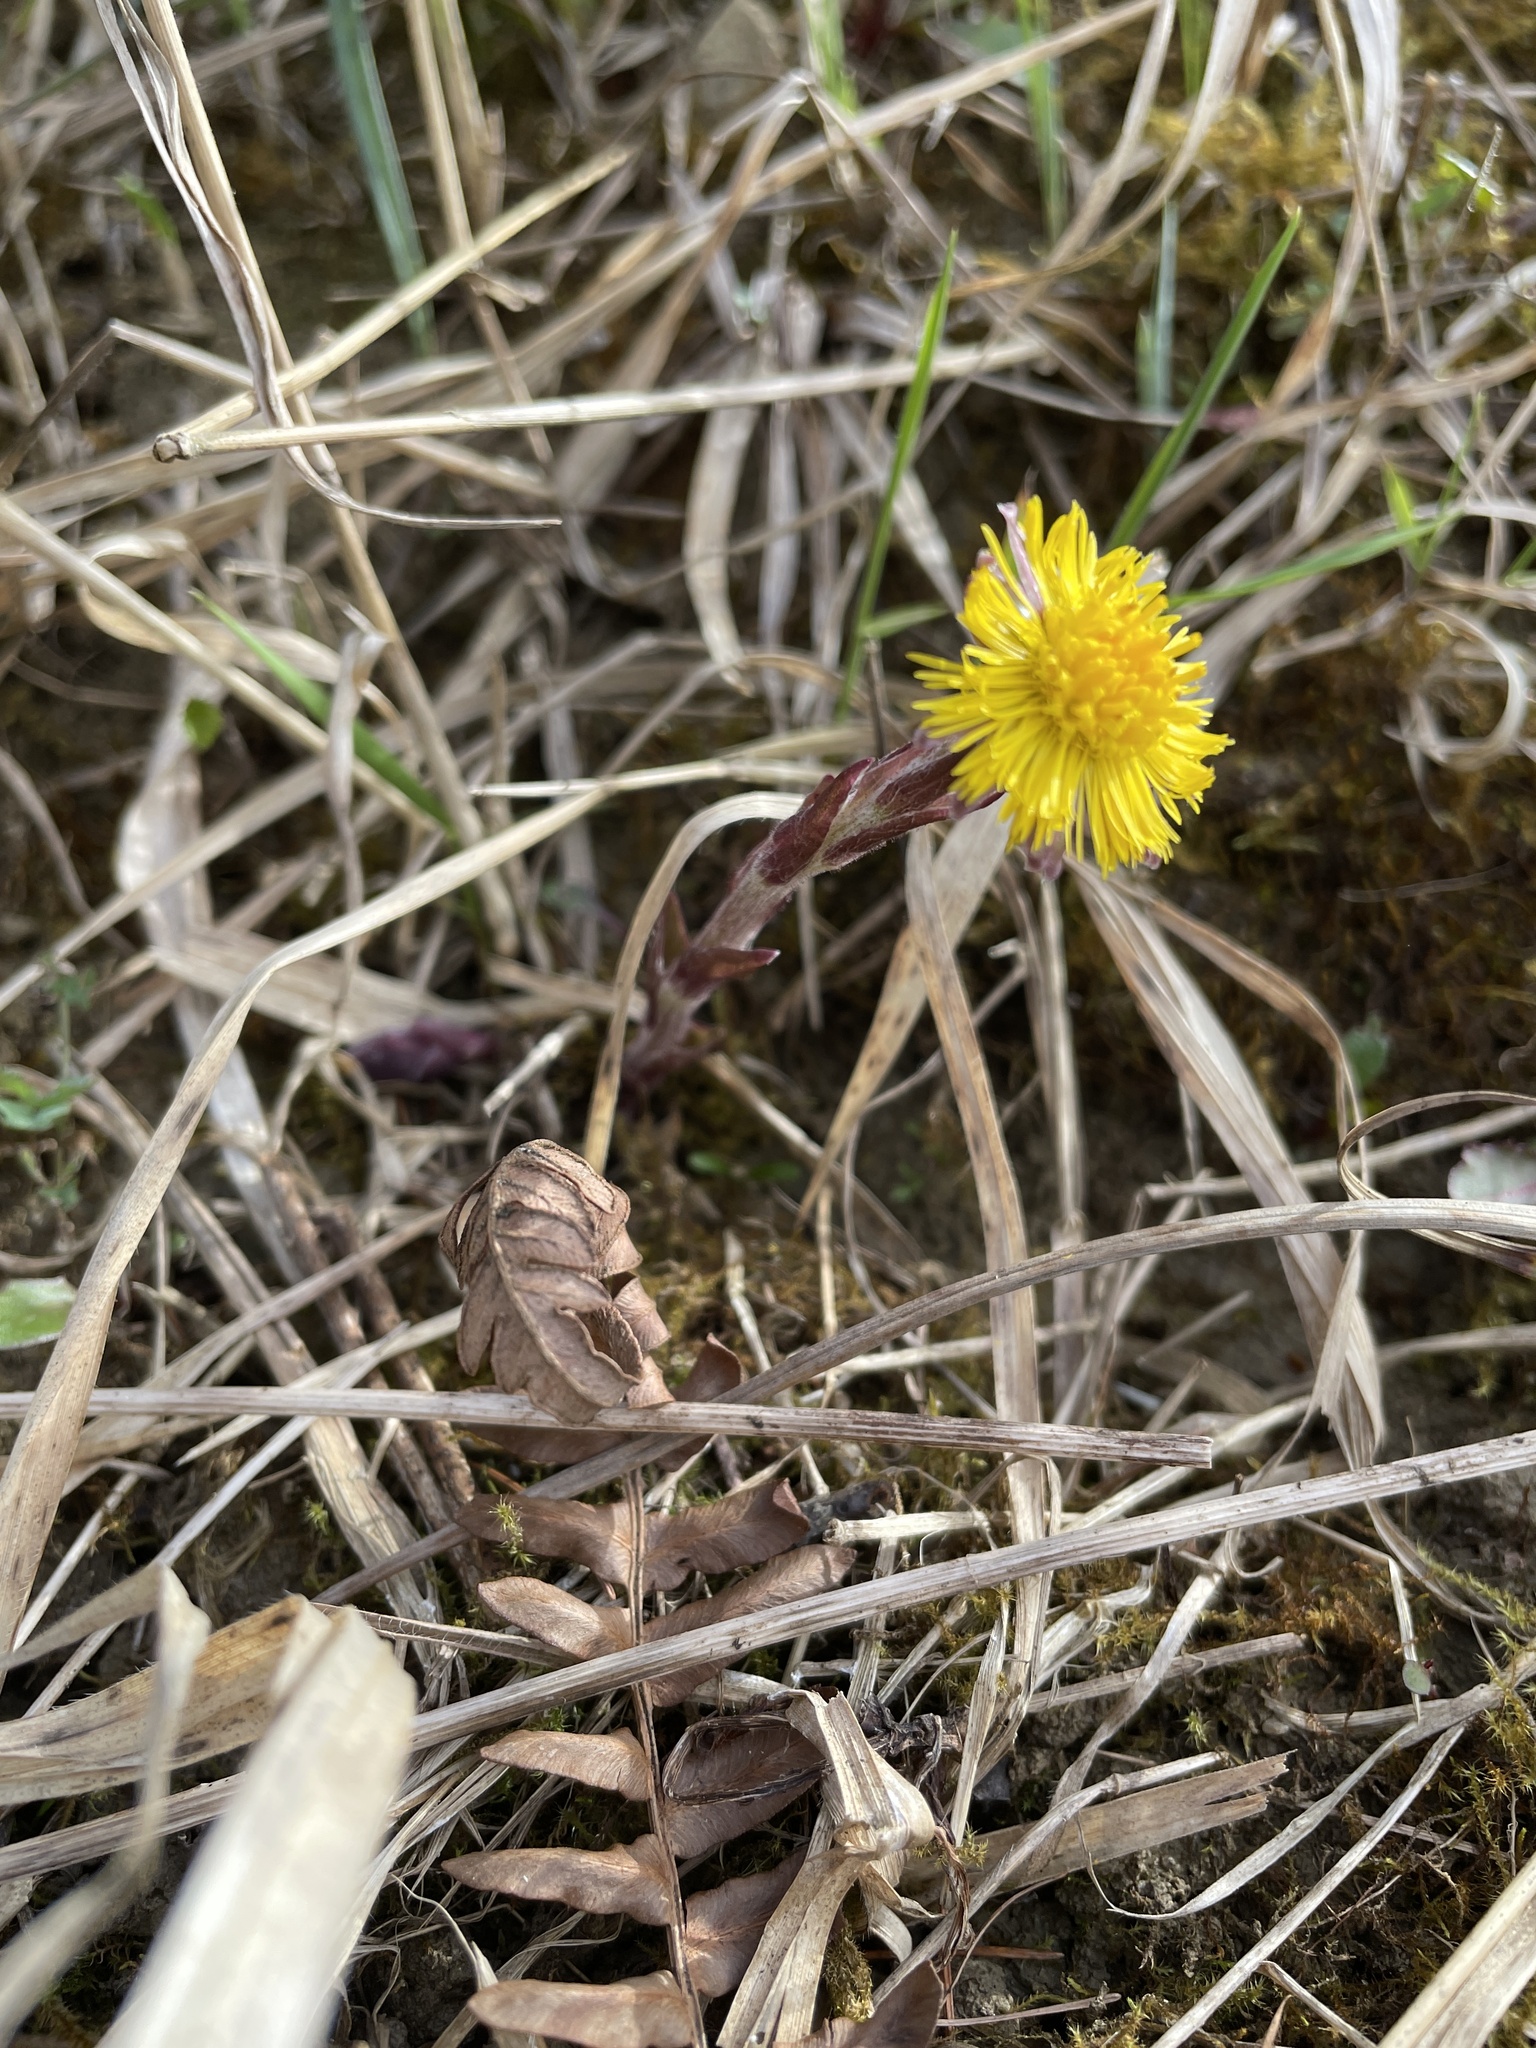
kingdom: Plantae
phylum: Tracheophyta
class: Magnoliopsida
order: Asterales
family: Asteraceae
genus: Tussilago
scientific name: Tussilago farfara
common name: Coltsfoot
